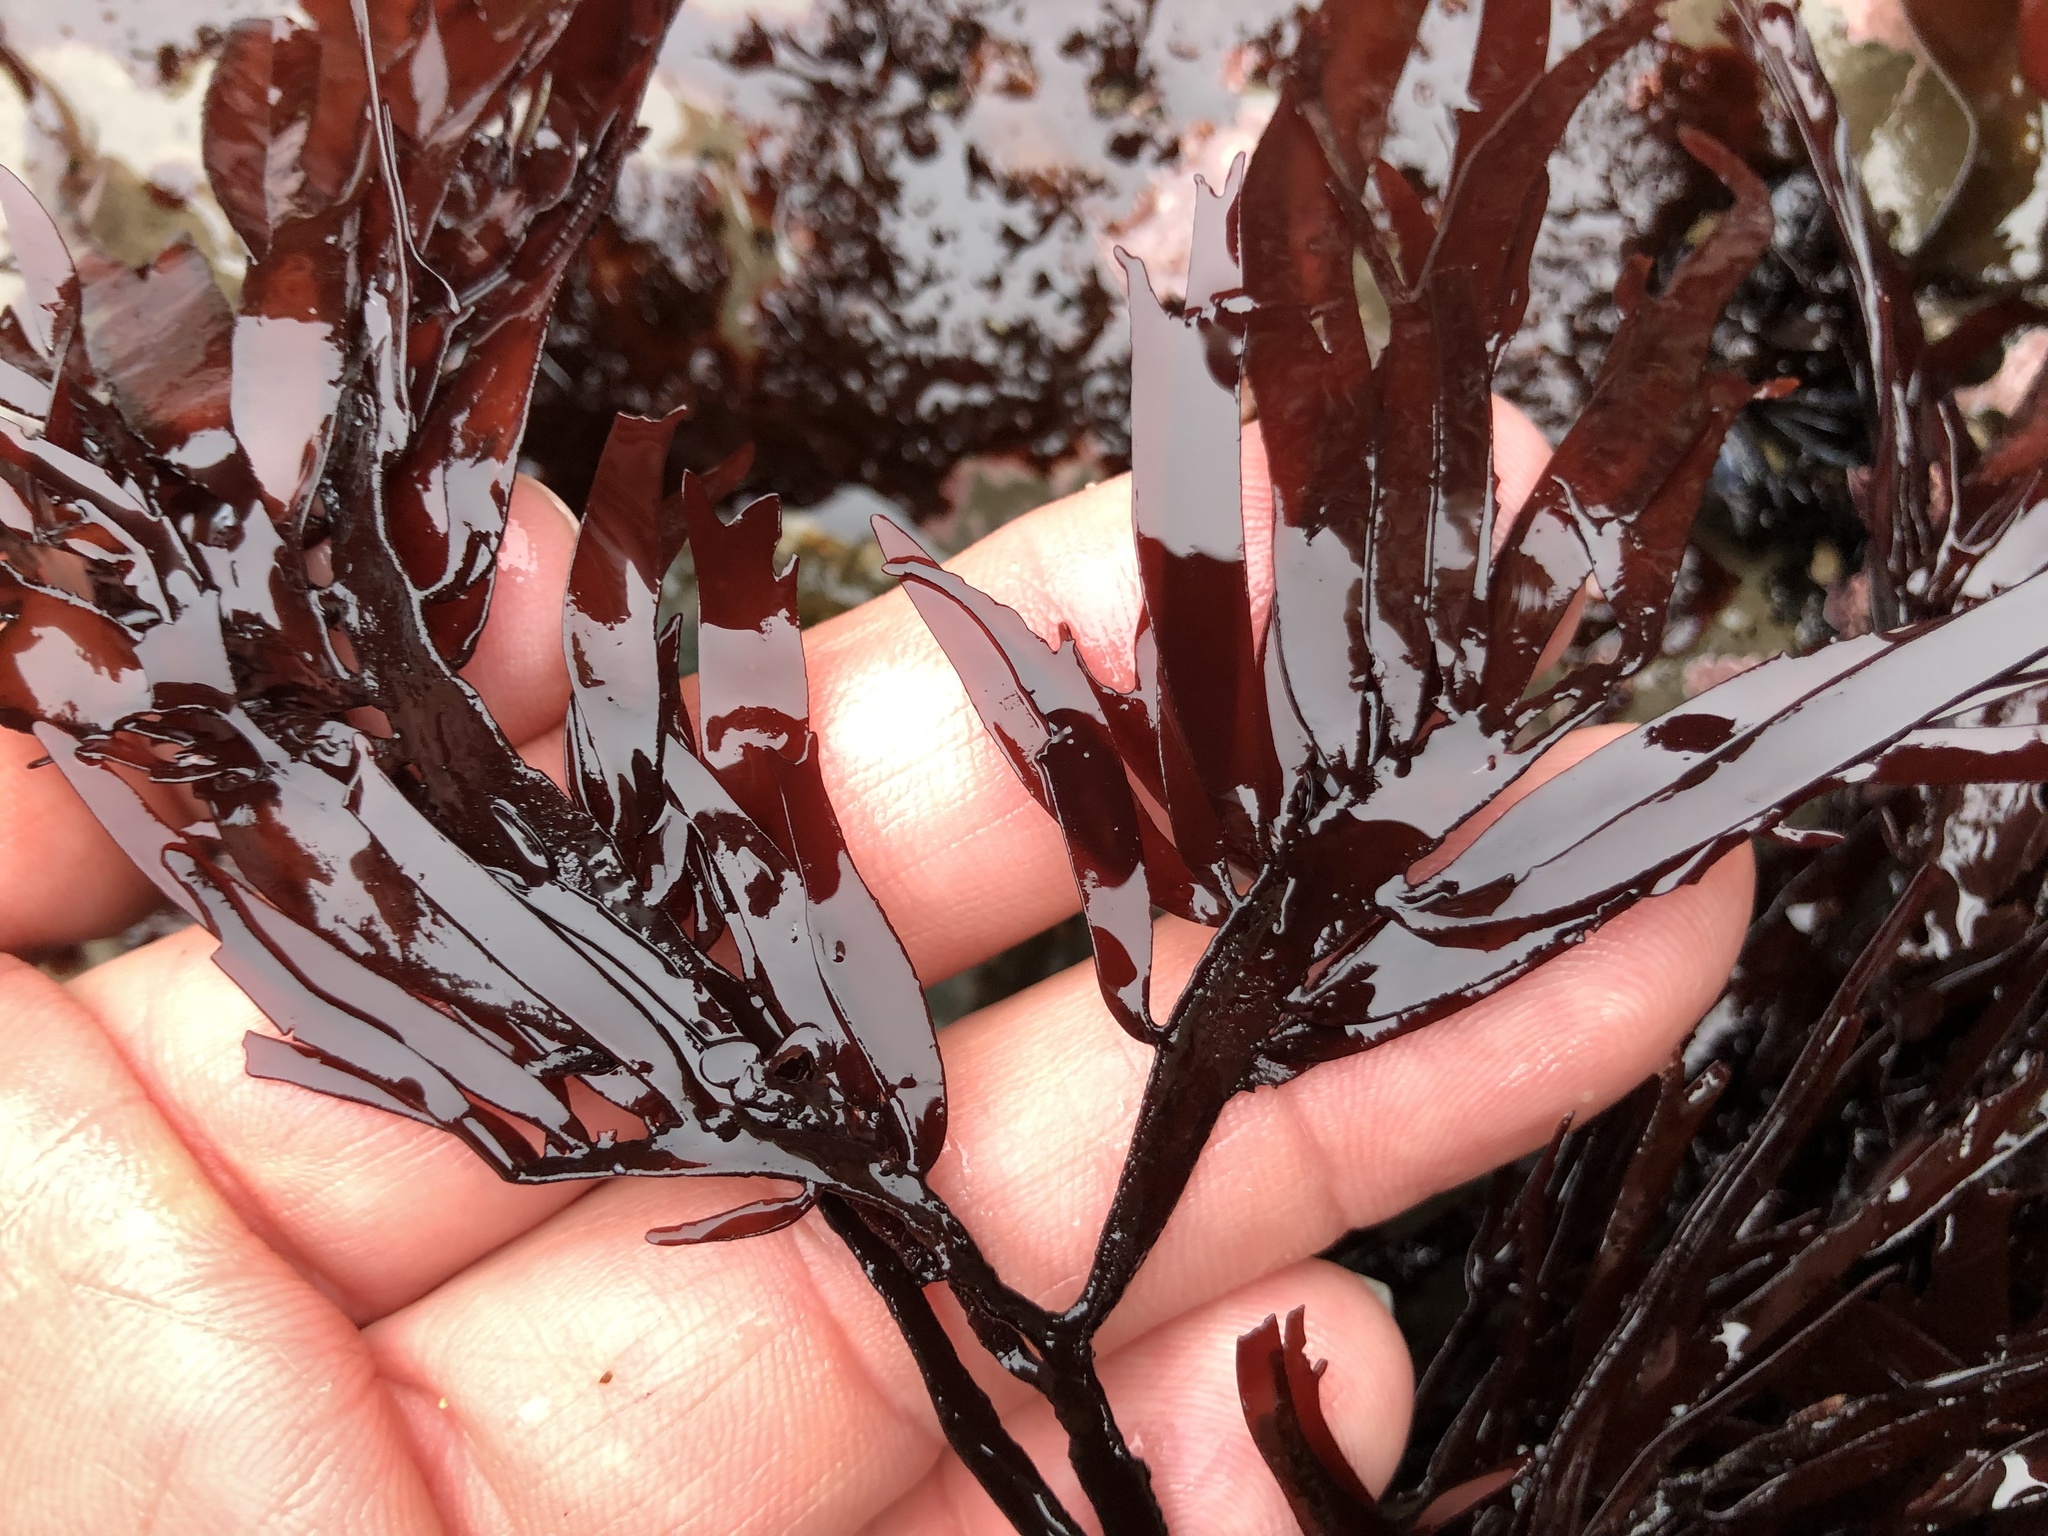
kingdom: Plantae
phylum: Rhodophyta
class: Florideophyceae
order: Halymeniales
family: Halymeniaceae
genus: Grateloupia
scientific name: Grateloupia Prionitis lanceolata
